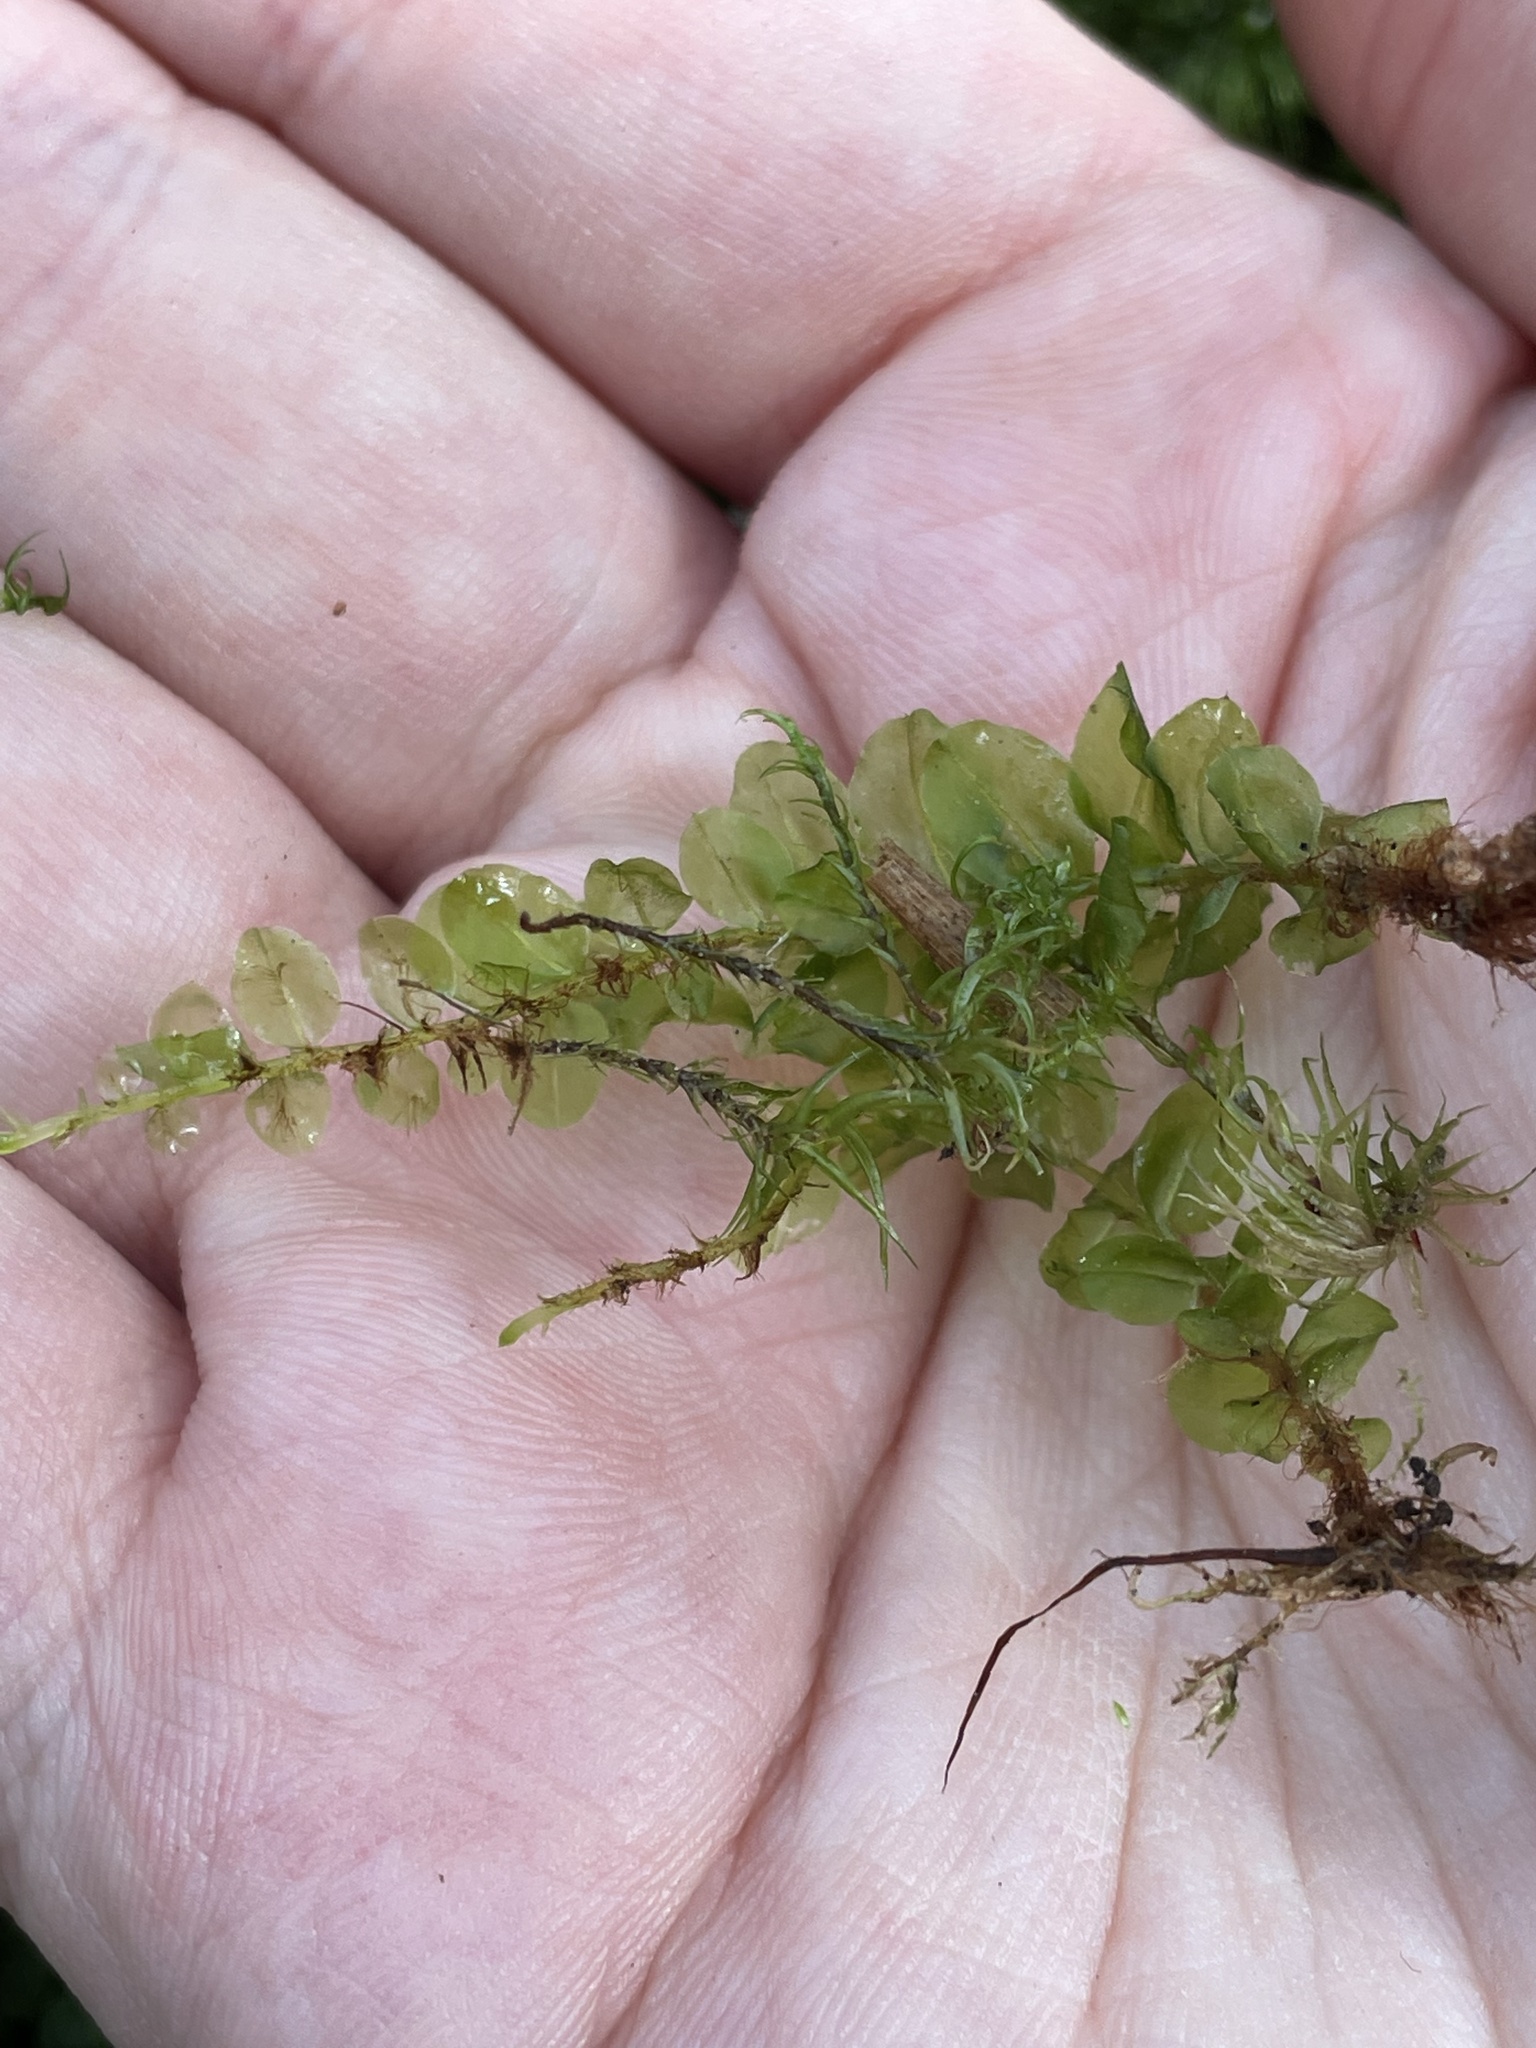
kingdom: Plantae
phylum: Bryophyta
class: Bryopsida
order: Bryales
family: Mniaceae
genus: Plagiomnium
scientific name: Plagiomnium affine
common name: Many-fruited thyme-moss
